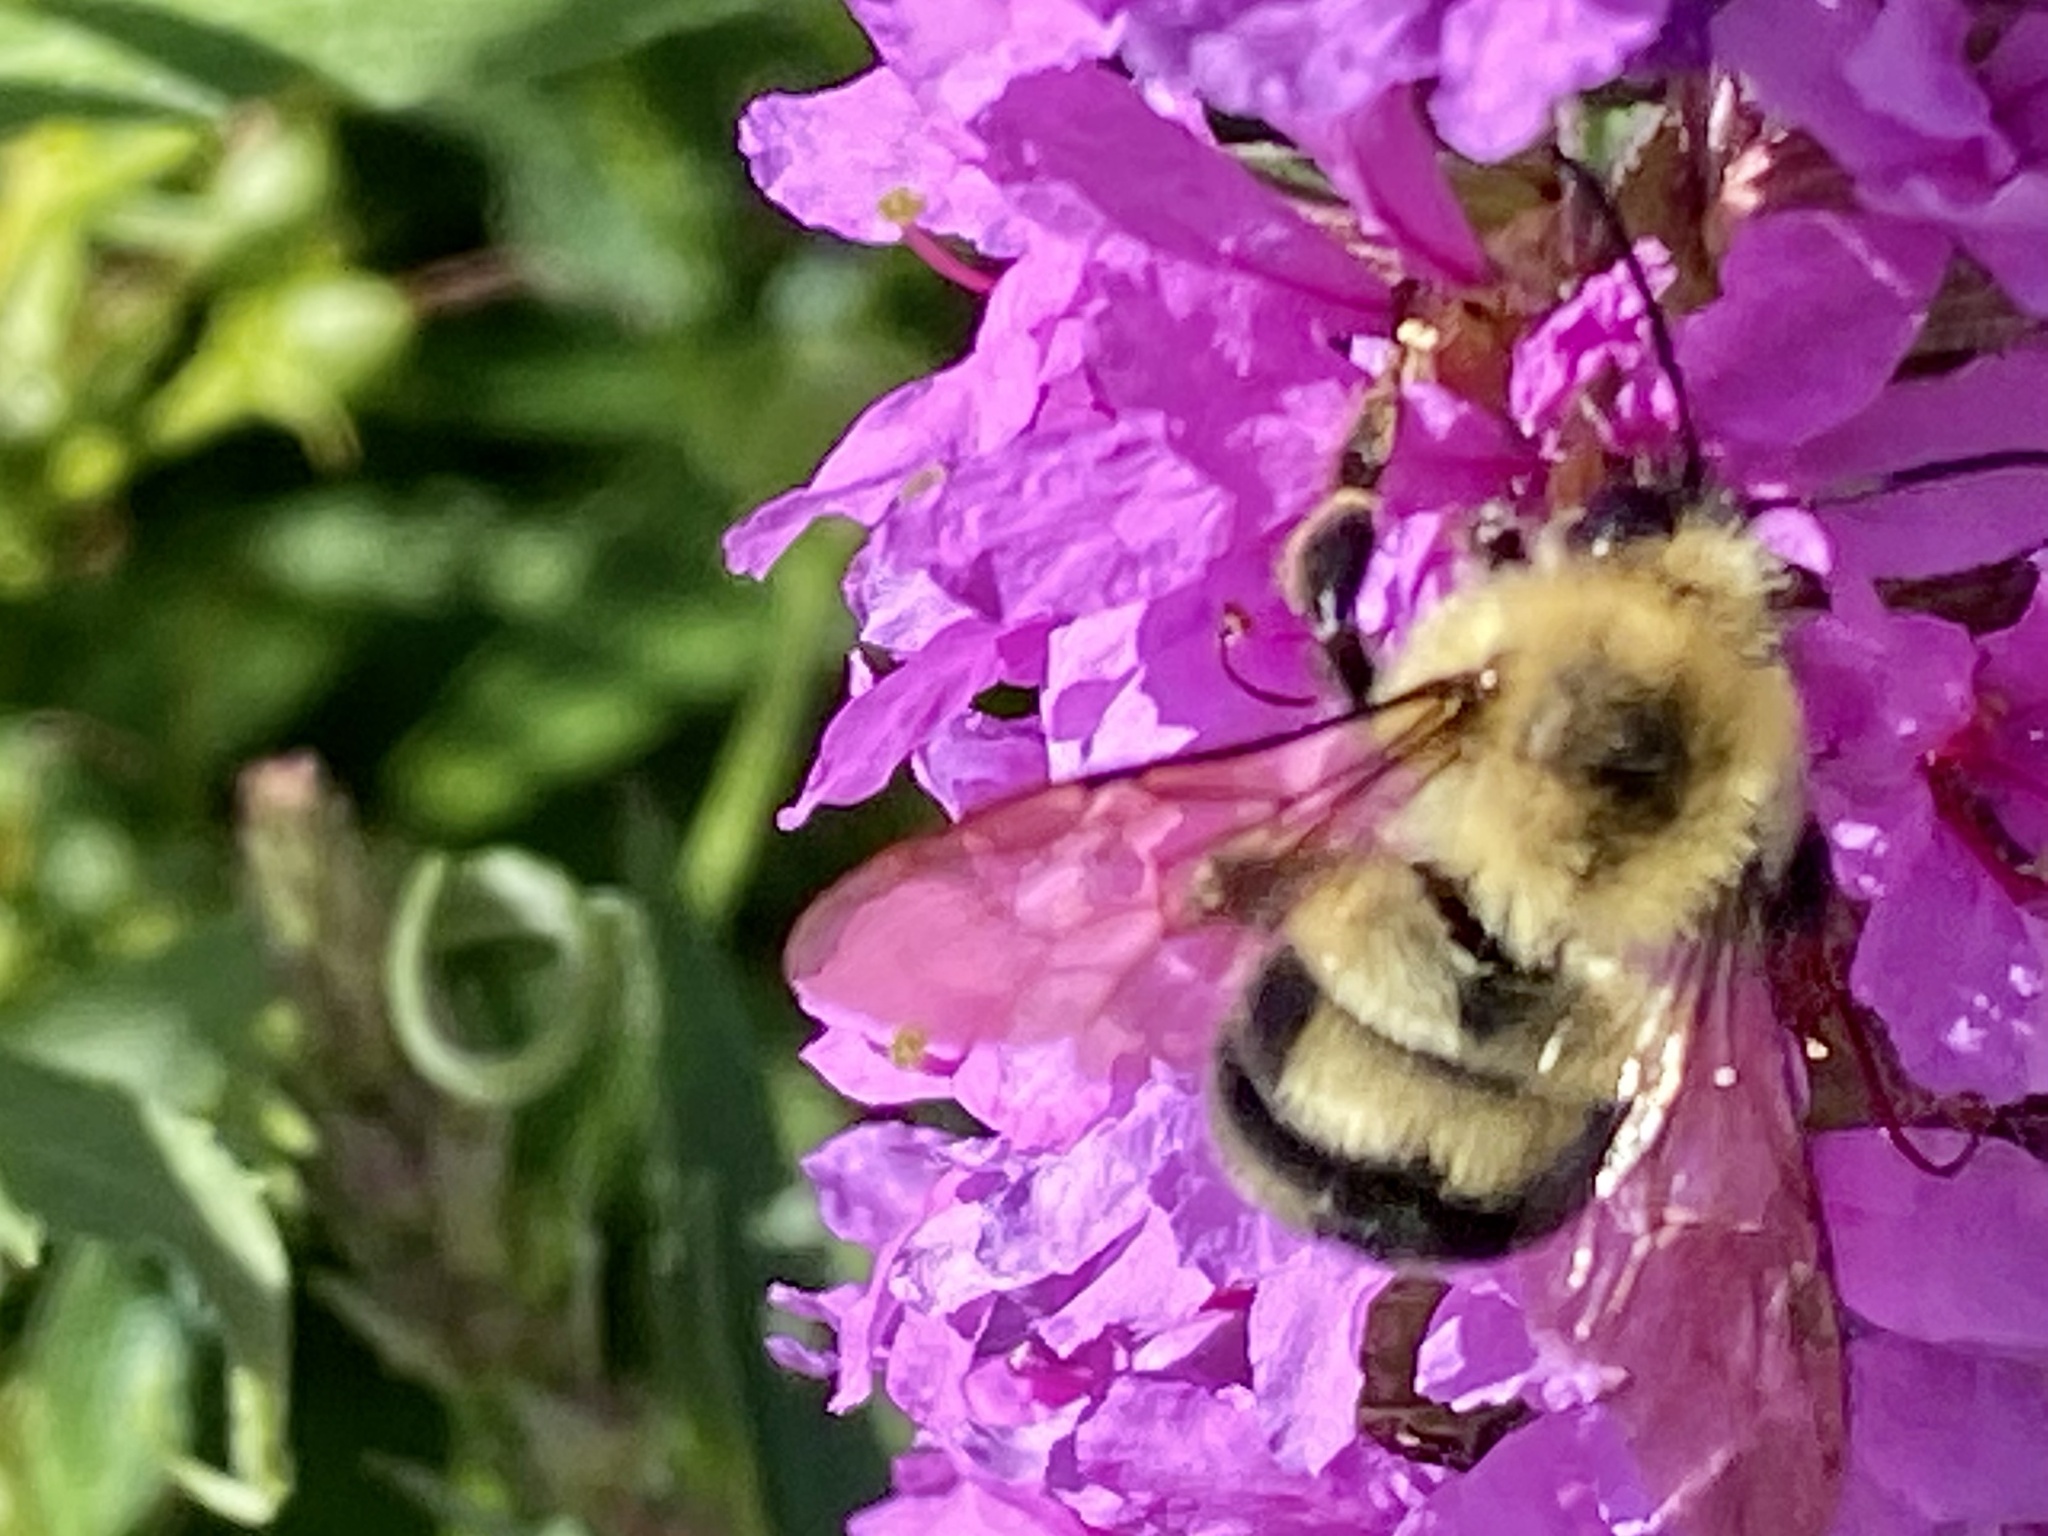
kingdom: Animalia
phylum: Arthropoda
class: Insecta
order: Hymenoptera
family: Apidae
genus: Bombus
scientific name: Bombus bimaculatus
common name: Two-spotted bumble bee
